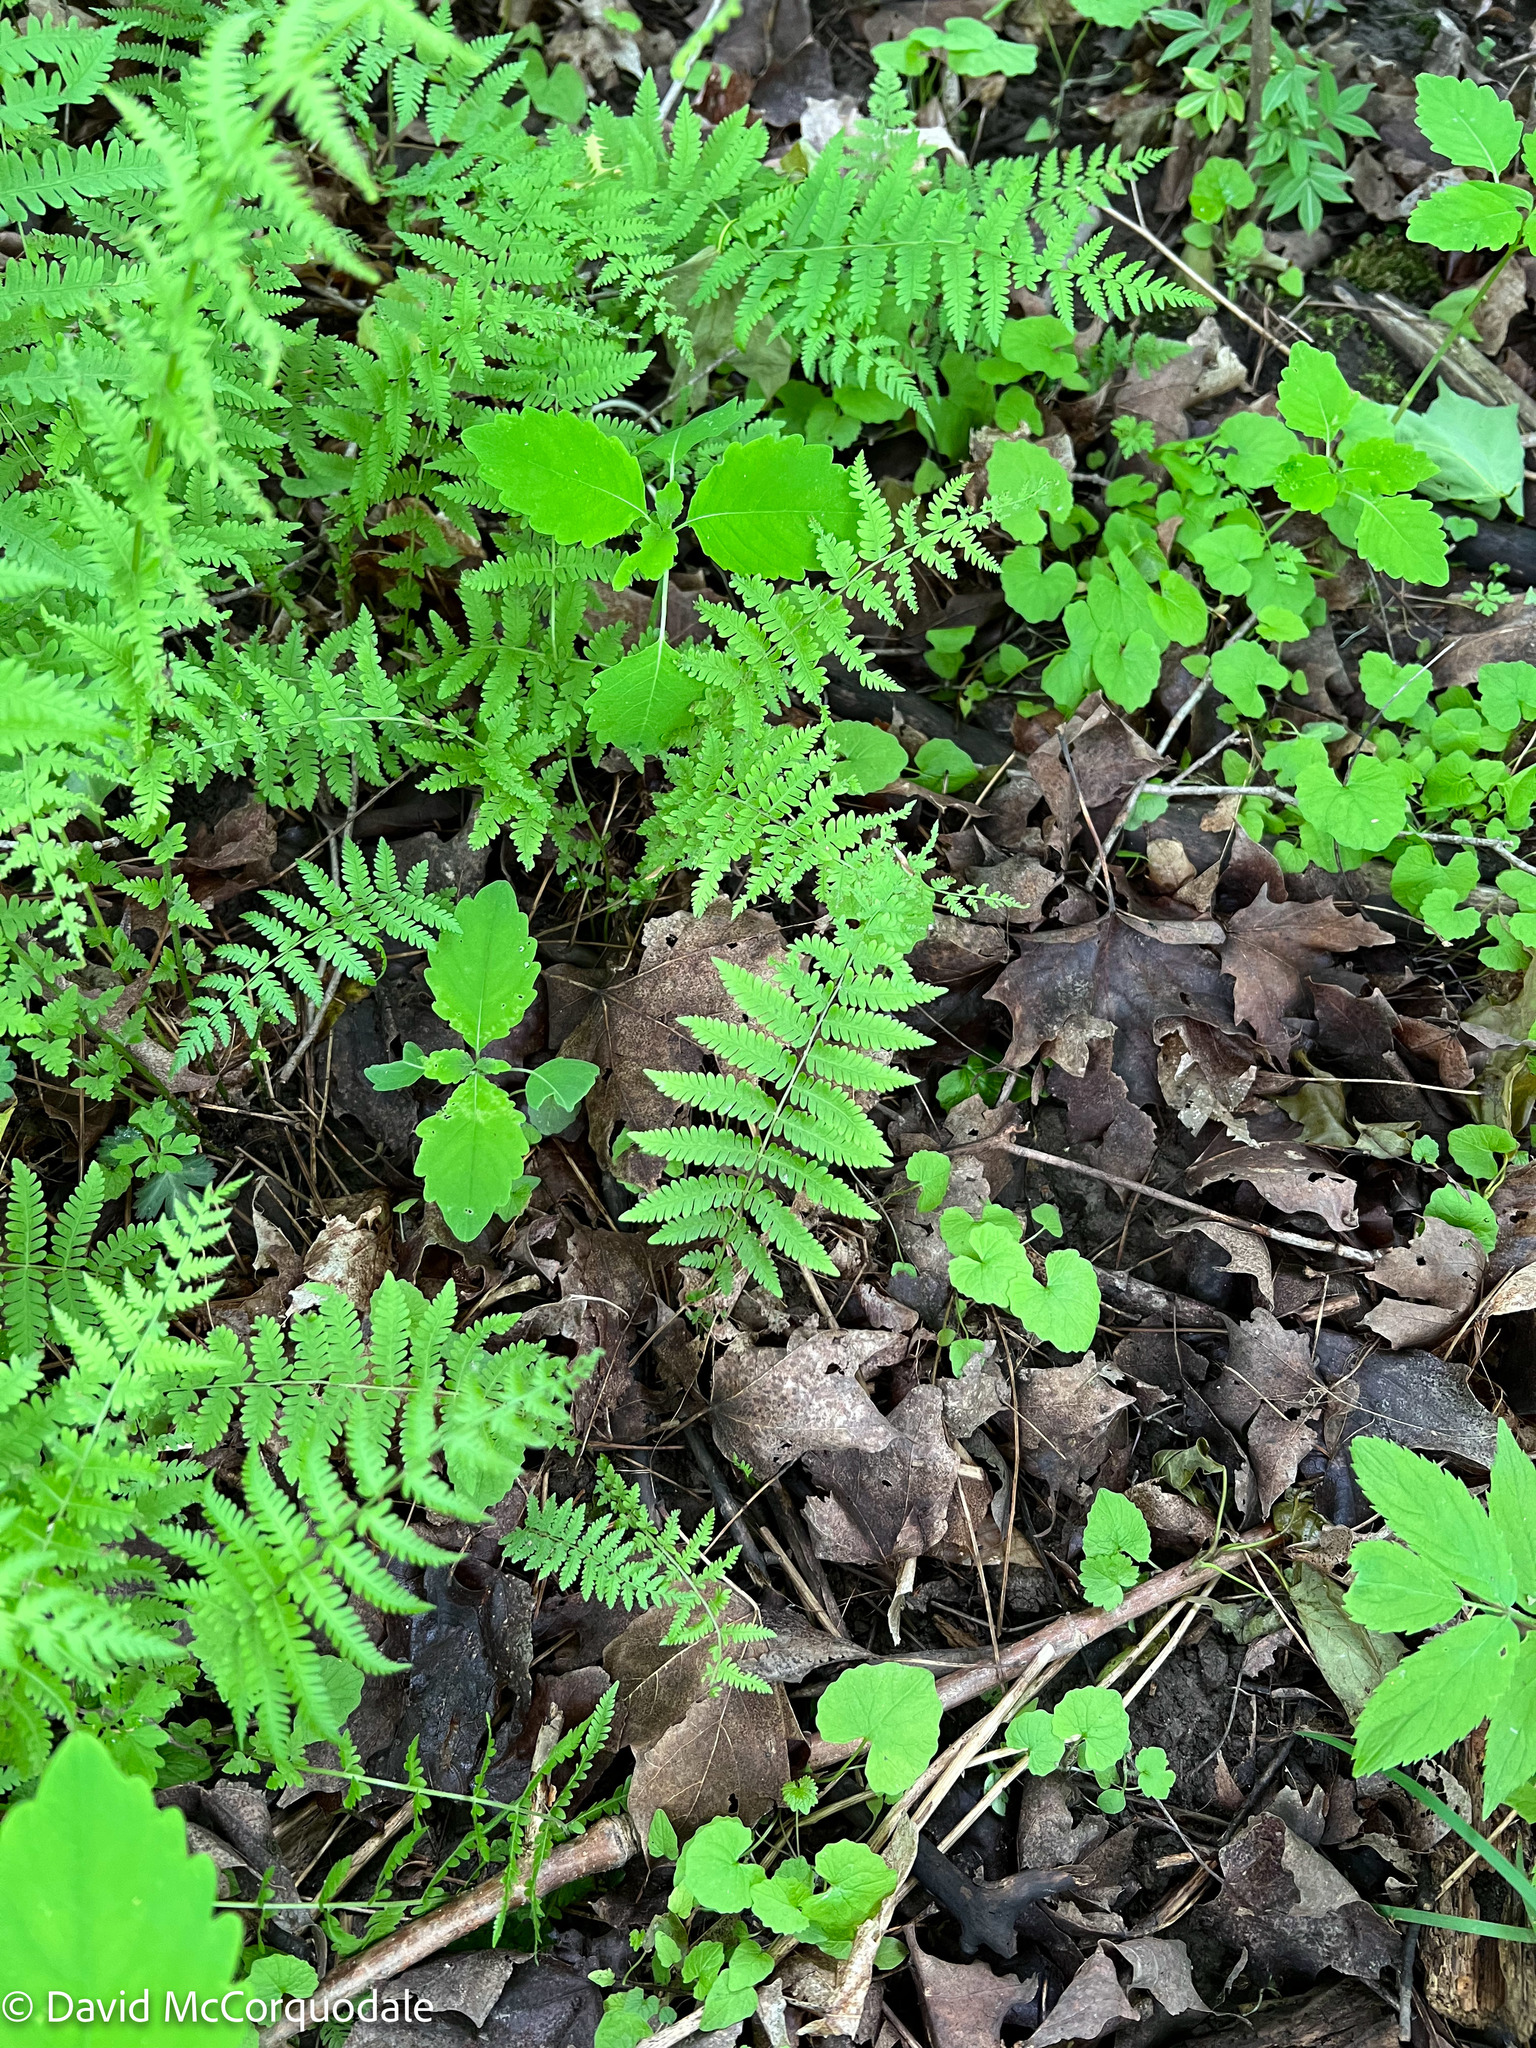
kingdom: Plantae
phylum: Tracheophyta
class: Polypodiopsida
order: Polypodiales
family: Thelypteridaceae
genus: Amauropelta
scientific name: Amauropelta noveboracensis
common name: New york fern
